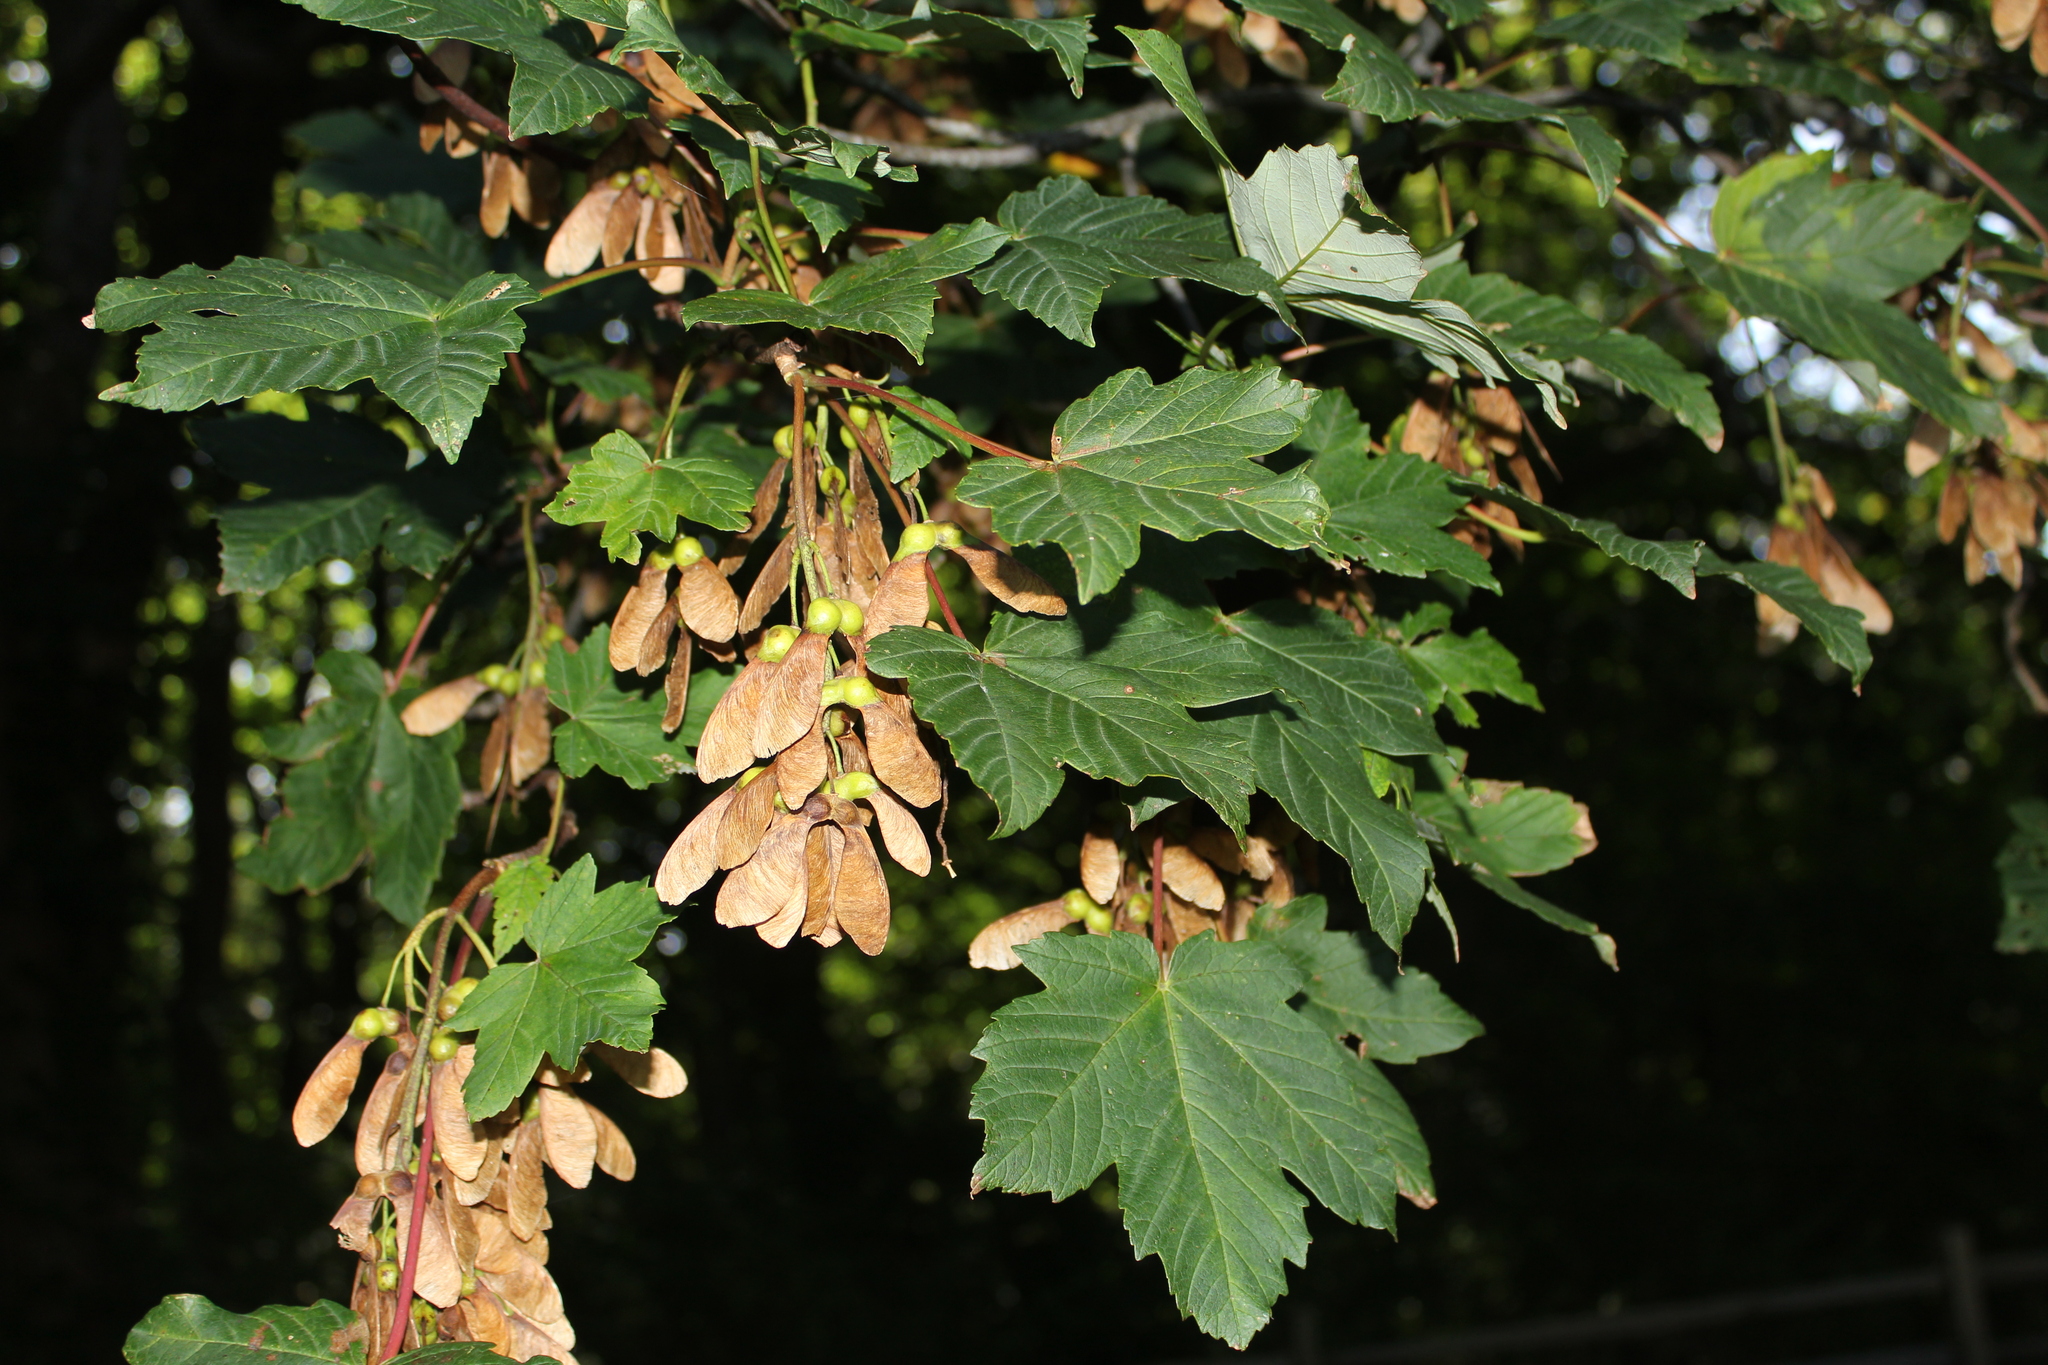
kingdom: Plantae
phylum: Tracheophyta
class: Magnoliopsida
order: Sapindales
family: Sapindaceae
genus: Acer
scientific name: Acer pseudoplatanus
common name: Sycamore
